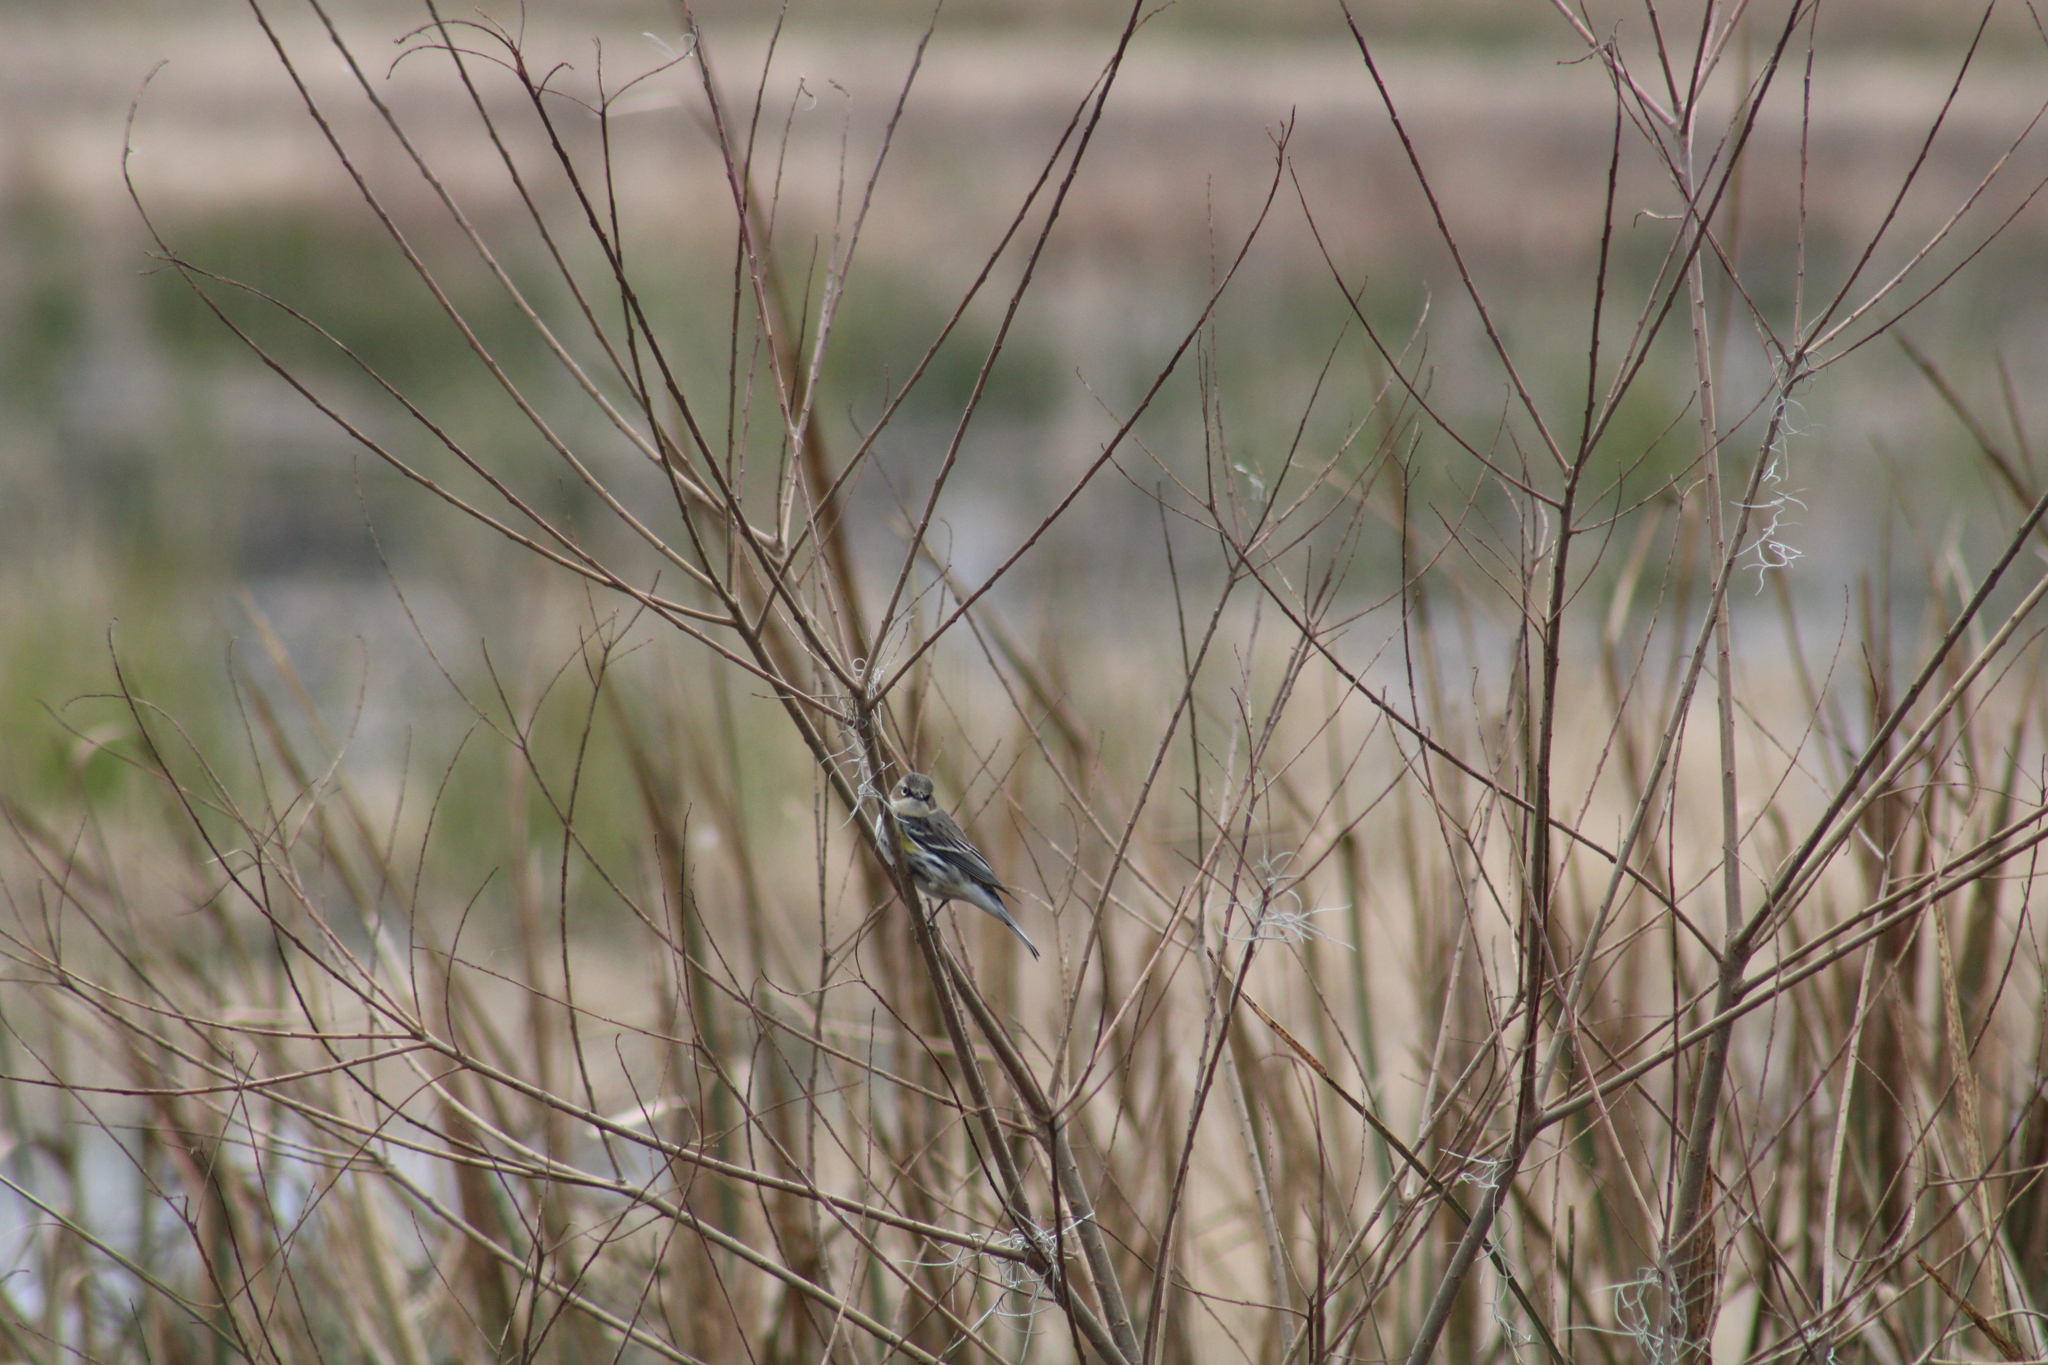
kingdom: Animalia
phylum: Chordata
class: Aves
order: Passeriformes
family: Parulidae
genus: Setophaga
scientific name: Setophaga coronata
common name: Myrtle warbler
